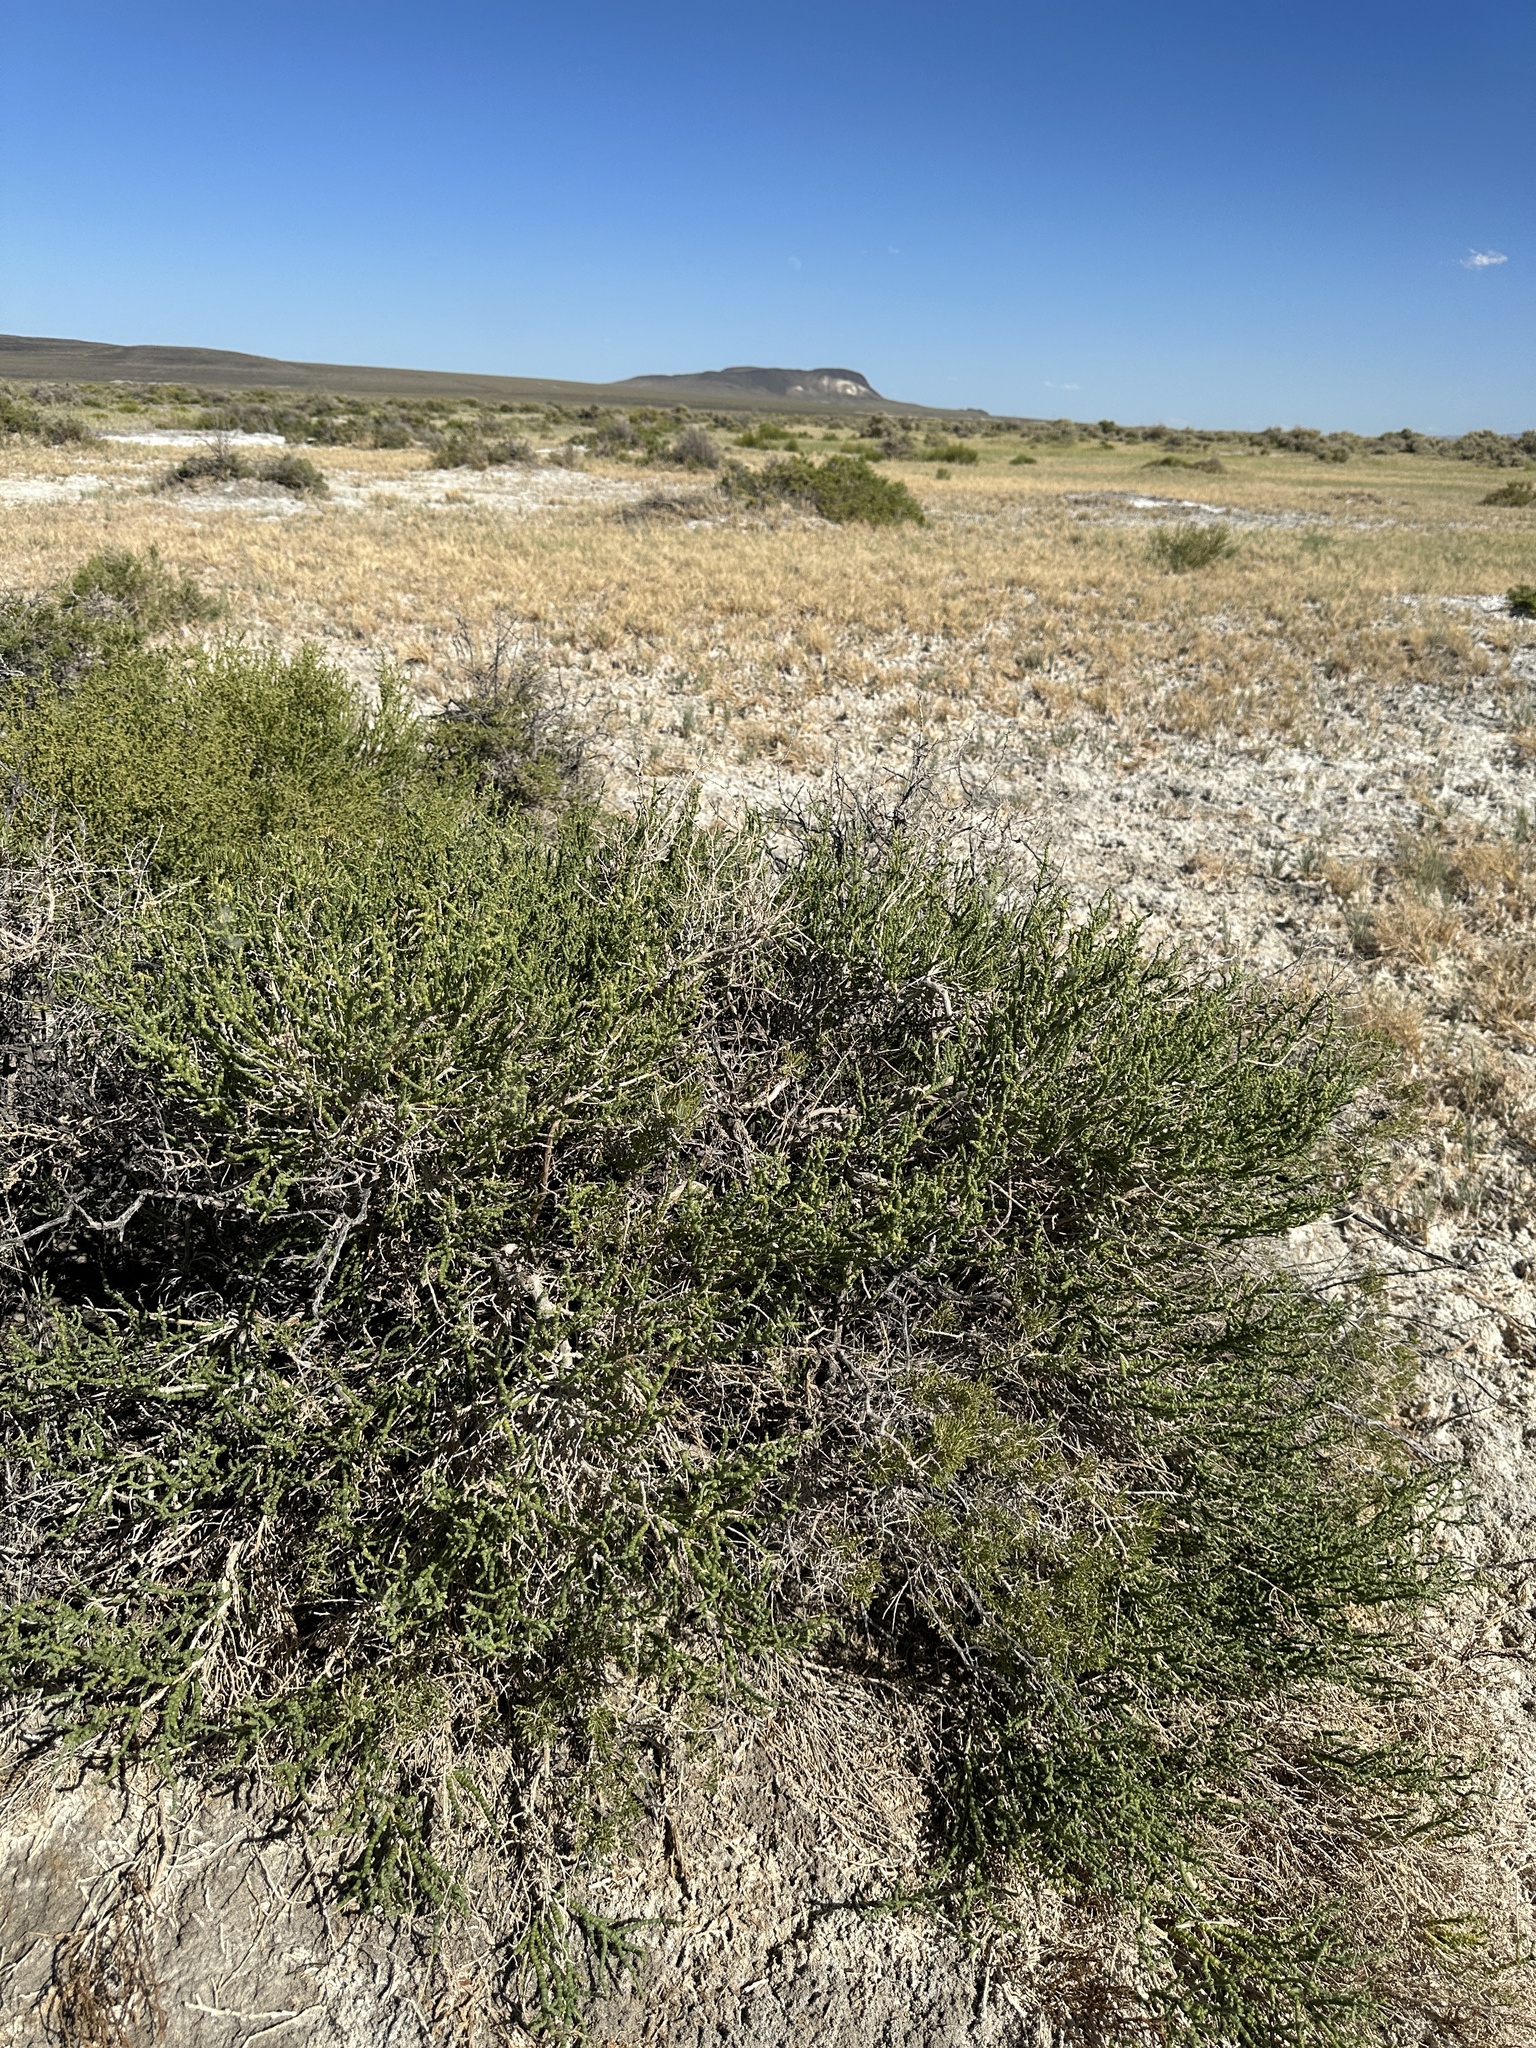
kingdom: Plantae
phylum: Tracheophyta
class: Magnoliopsida
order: Caryophyllales
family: Amaranthaceae
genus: Allenrolfea
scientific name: Allenrolfea occidentalis
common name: Iodine-bush
